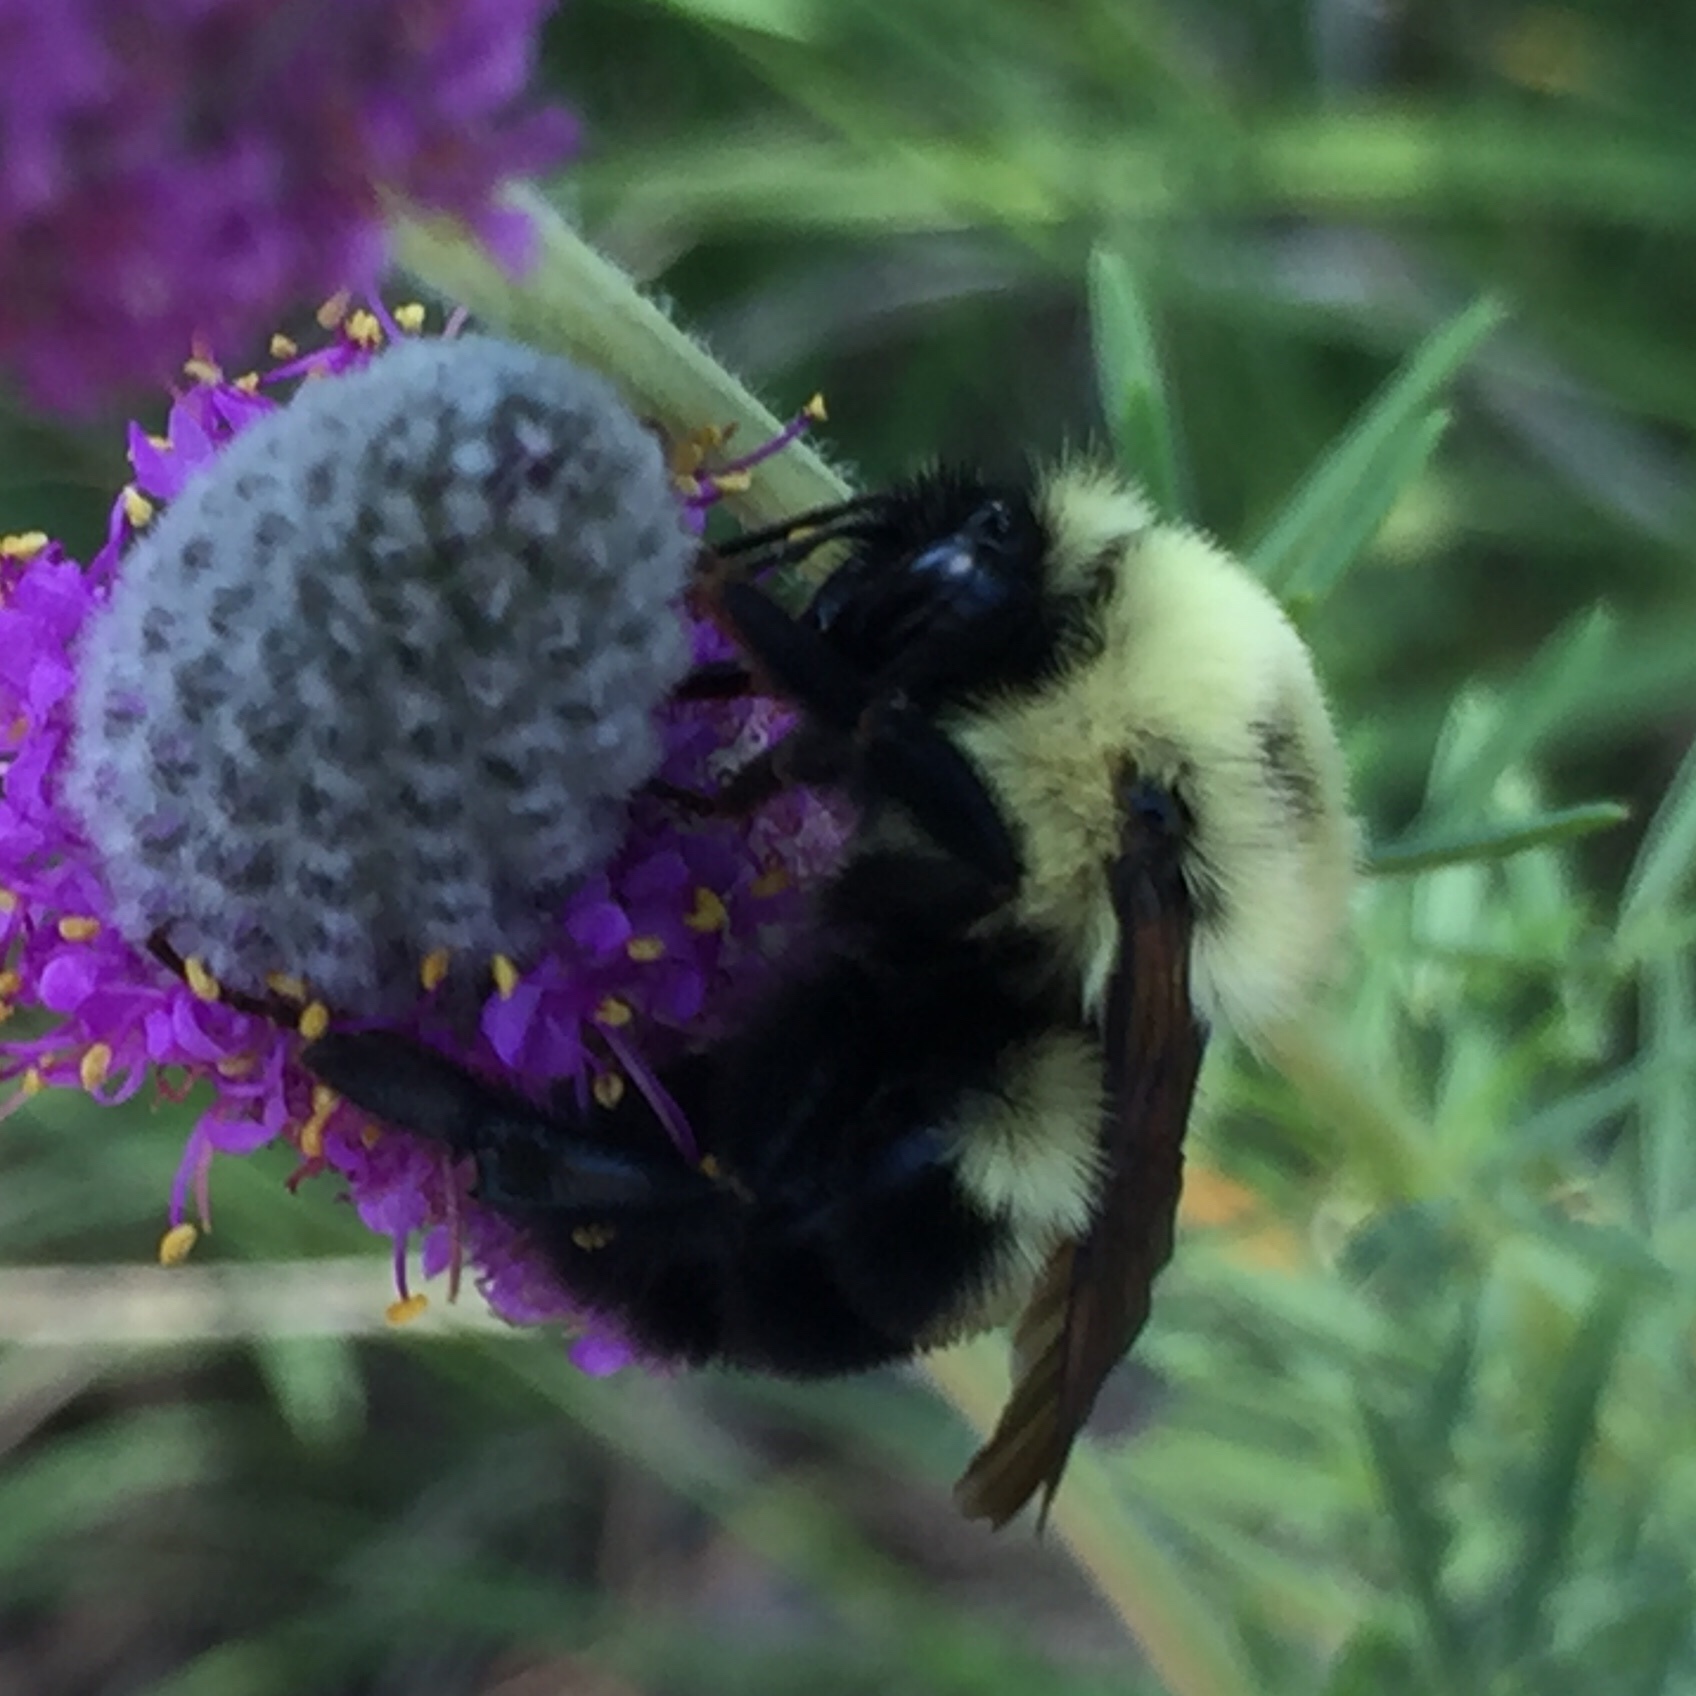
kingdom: Animalia
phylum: Arthropoda
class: Insecta
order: Hymenoptera
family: Apidae
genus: Bombus
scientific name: Bombus bimaculatus
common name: Two-spotted bumble bee
